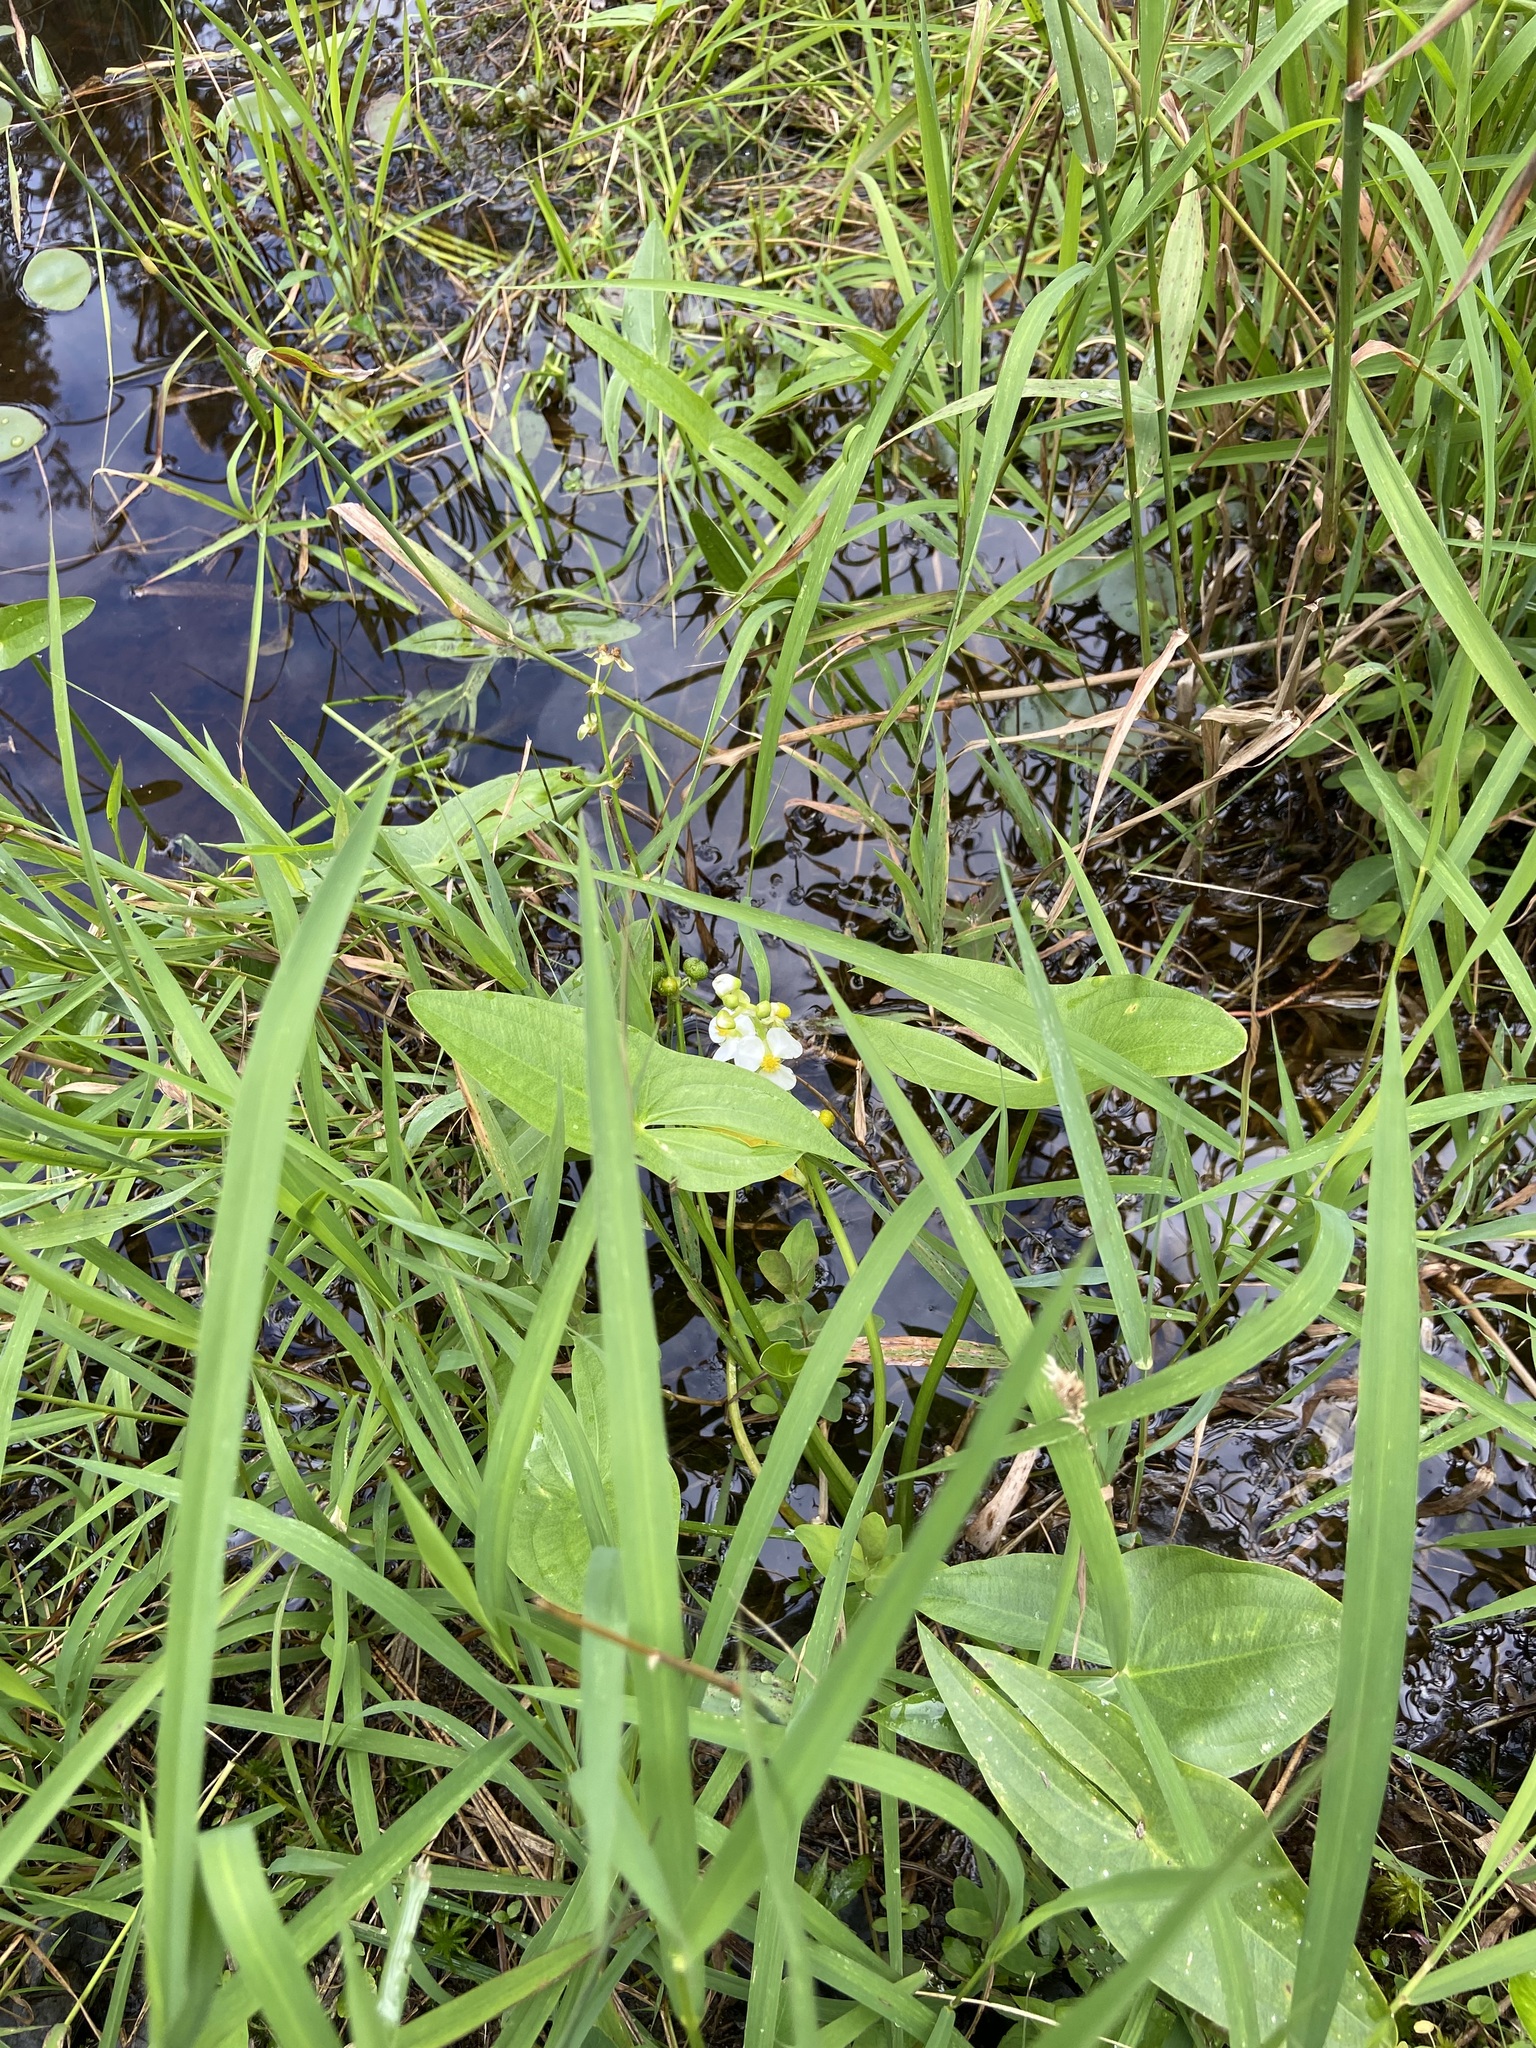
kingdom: Plantae
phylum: Tracheophyta
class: Liliopsida
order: Alismatales
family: Alismataceae
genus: Sagittaria
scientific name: Sagittaria latifolia
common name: Duck-potato
